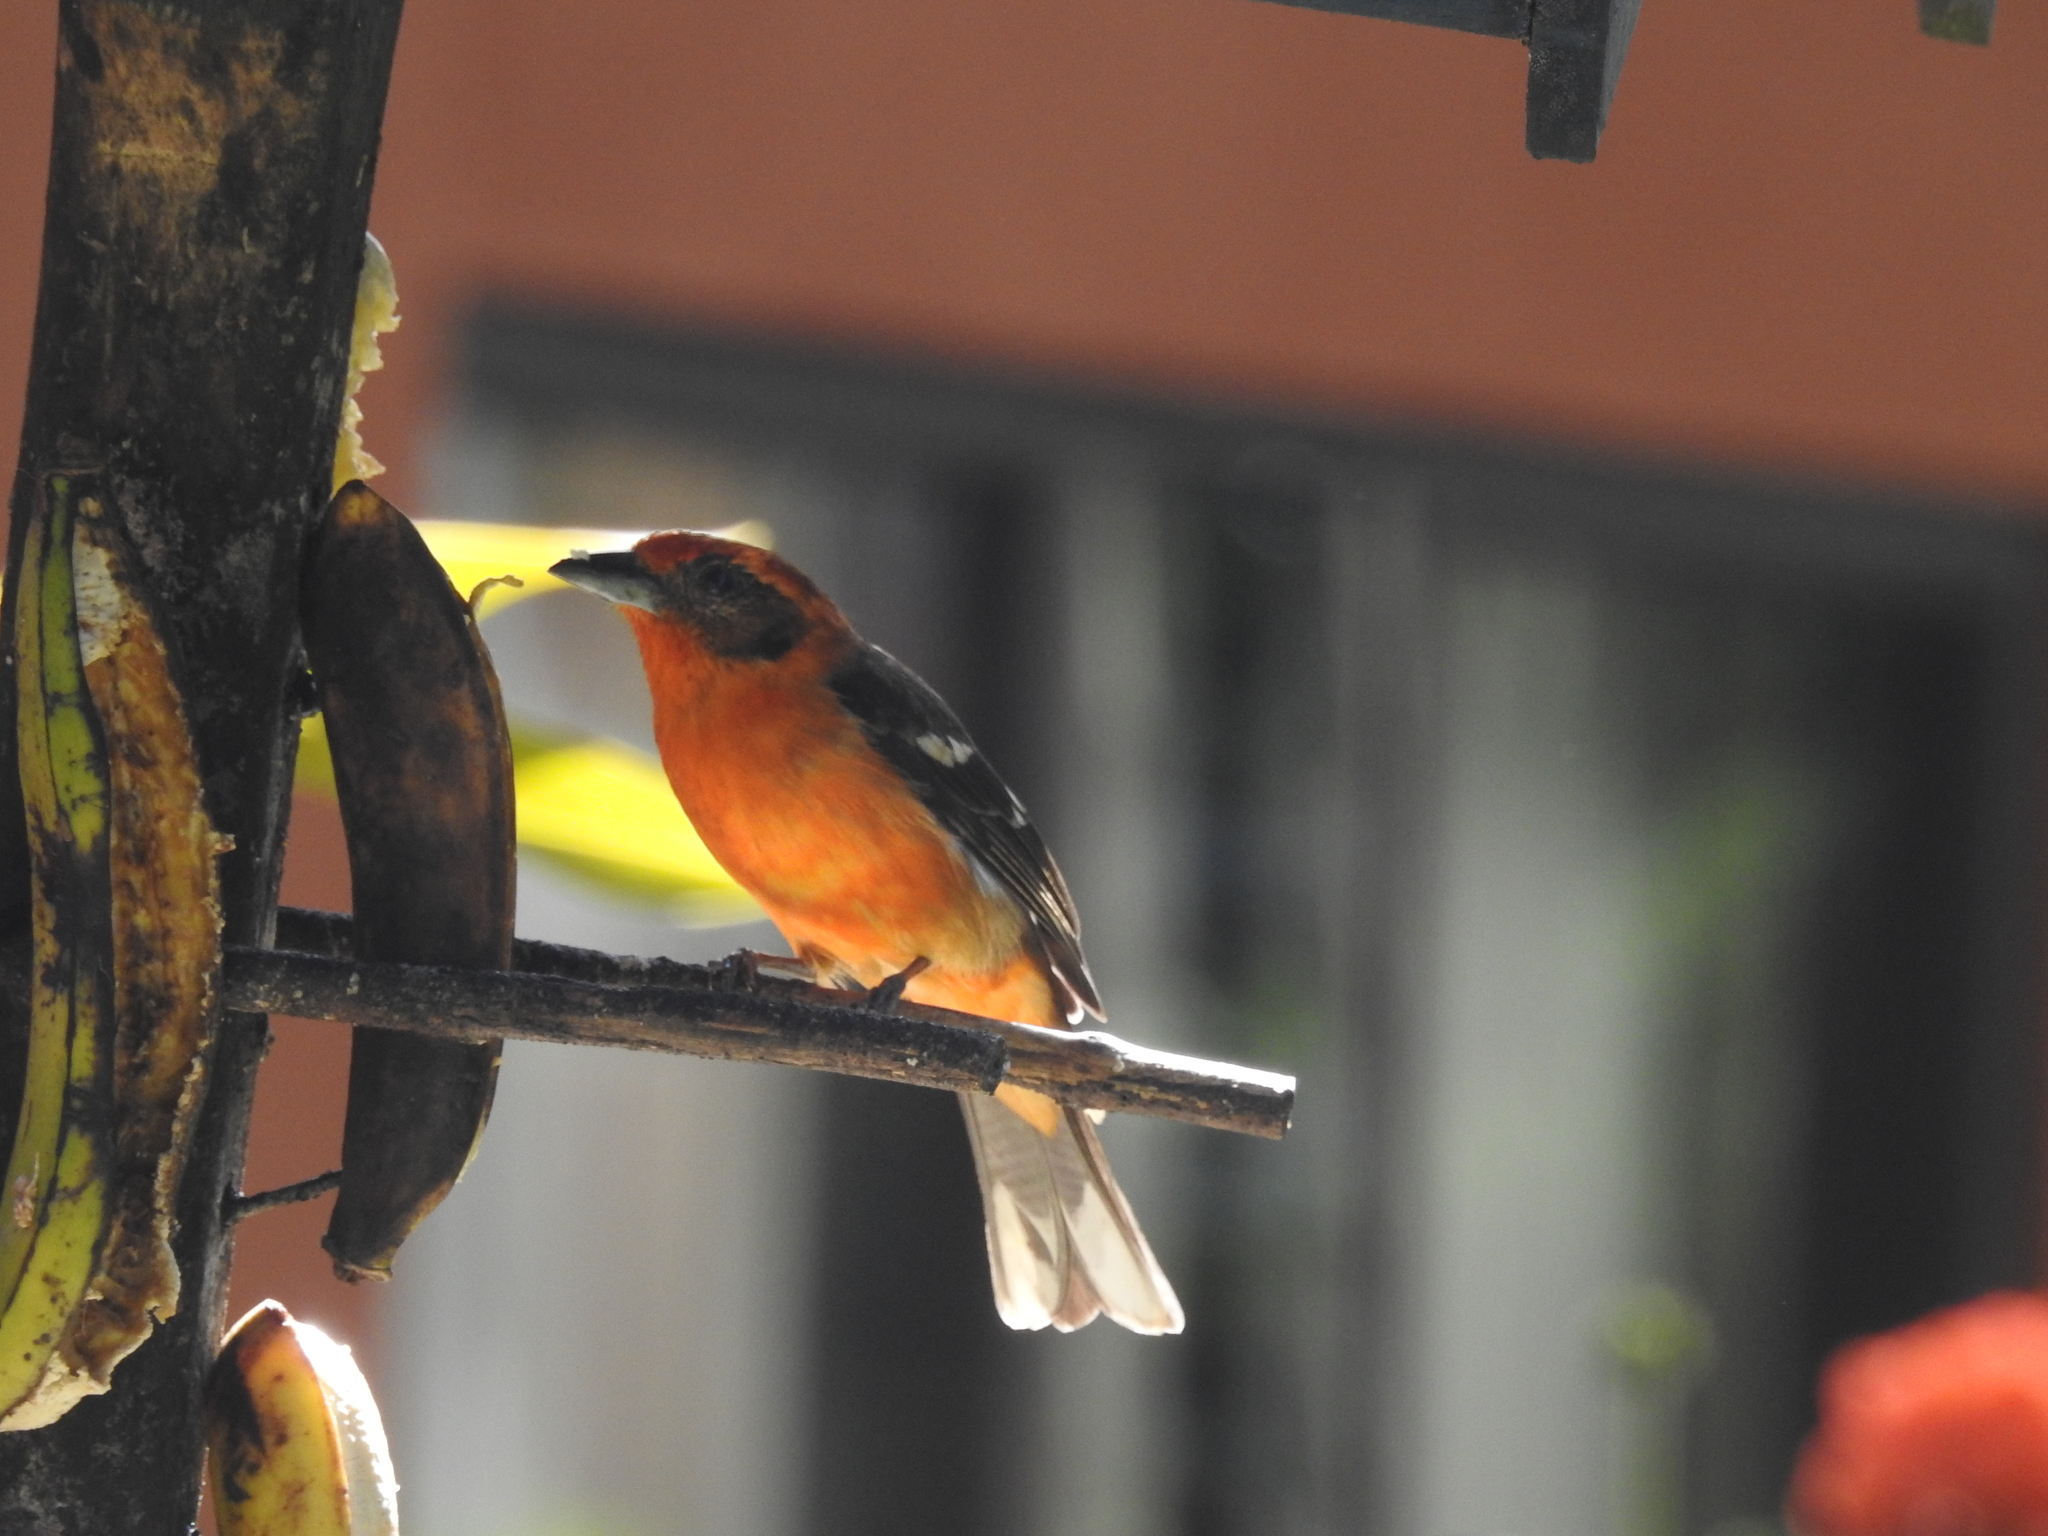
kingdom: Animalia
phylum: Chordata
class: Aves
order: Passeriformes
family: Cardinalidae
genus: Piranga
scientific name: Piranga bidentata
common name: Flame-colored tanager
